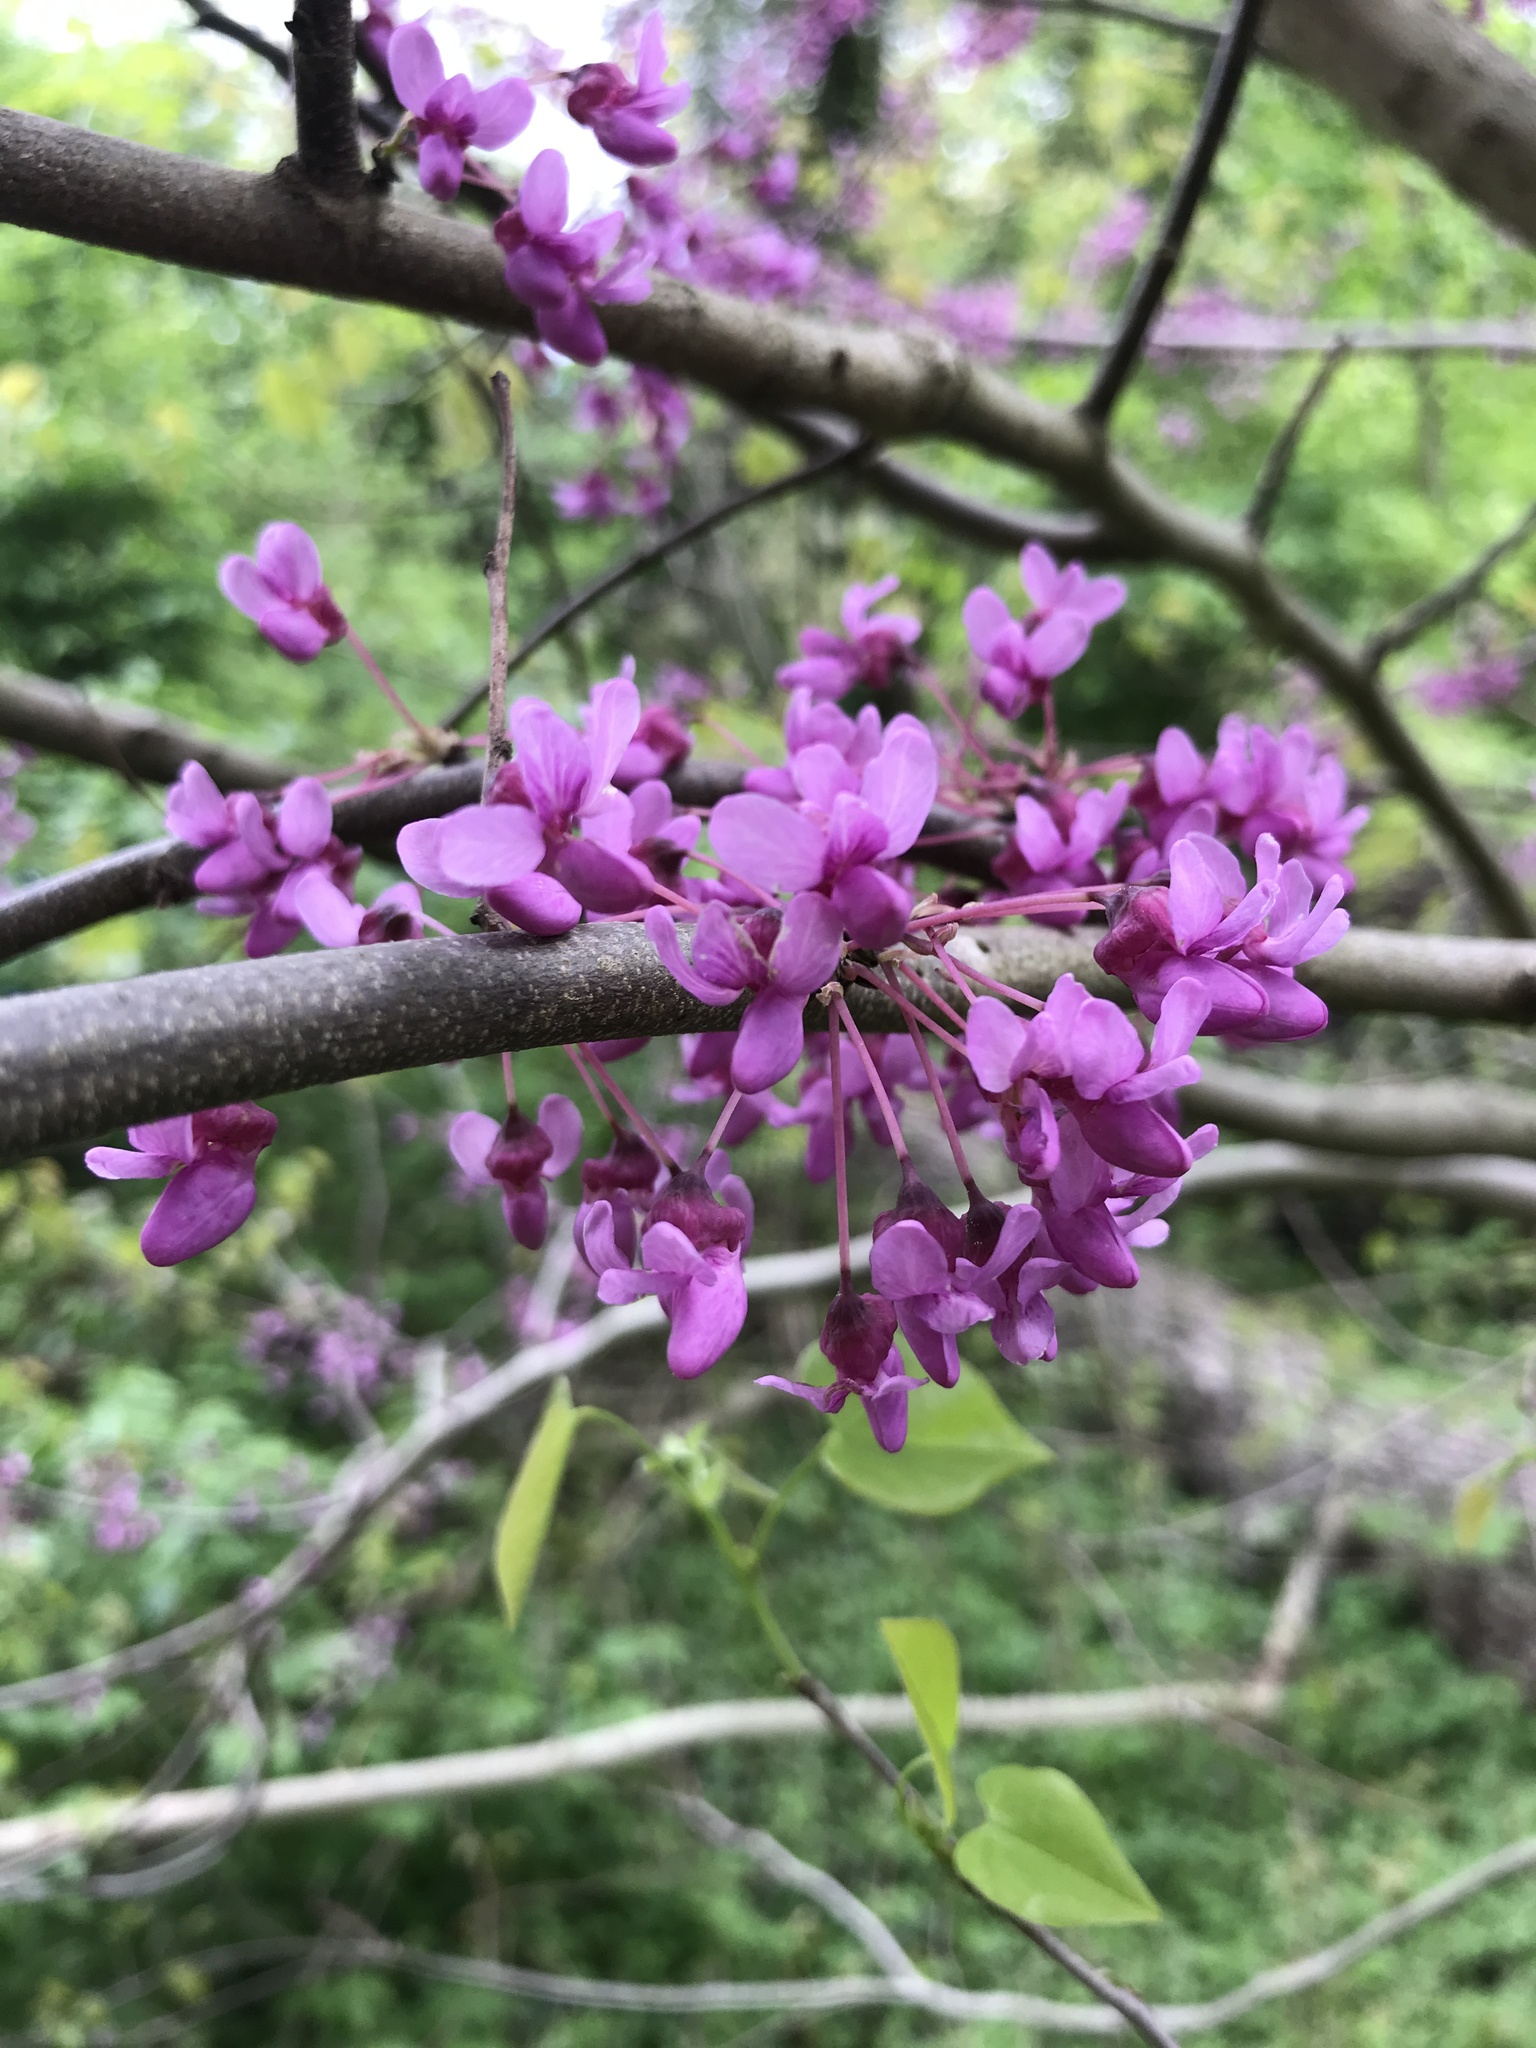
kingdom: Plantae
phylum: Tracheophyta
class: Magnoliopsida
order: Fabales
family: Fabaceae
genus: Cercis
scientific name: Cercis canadensis
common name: Eastern redbud
